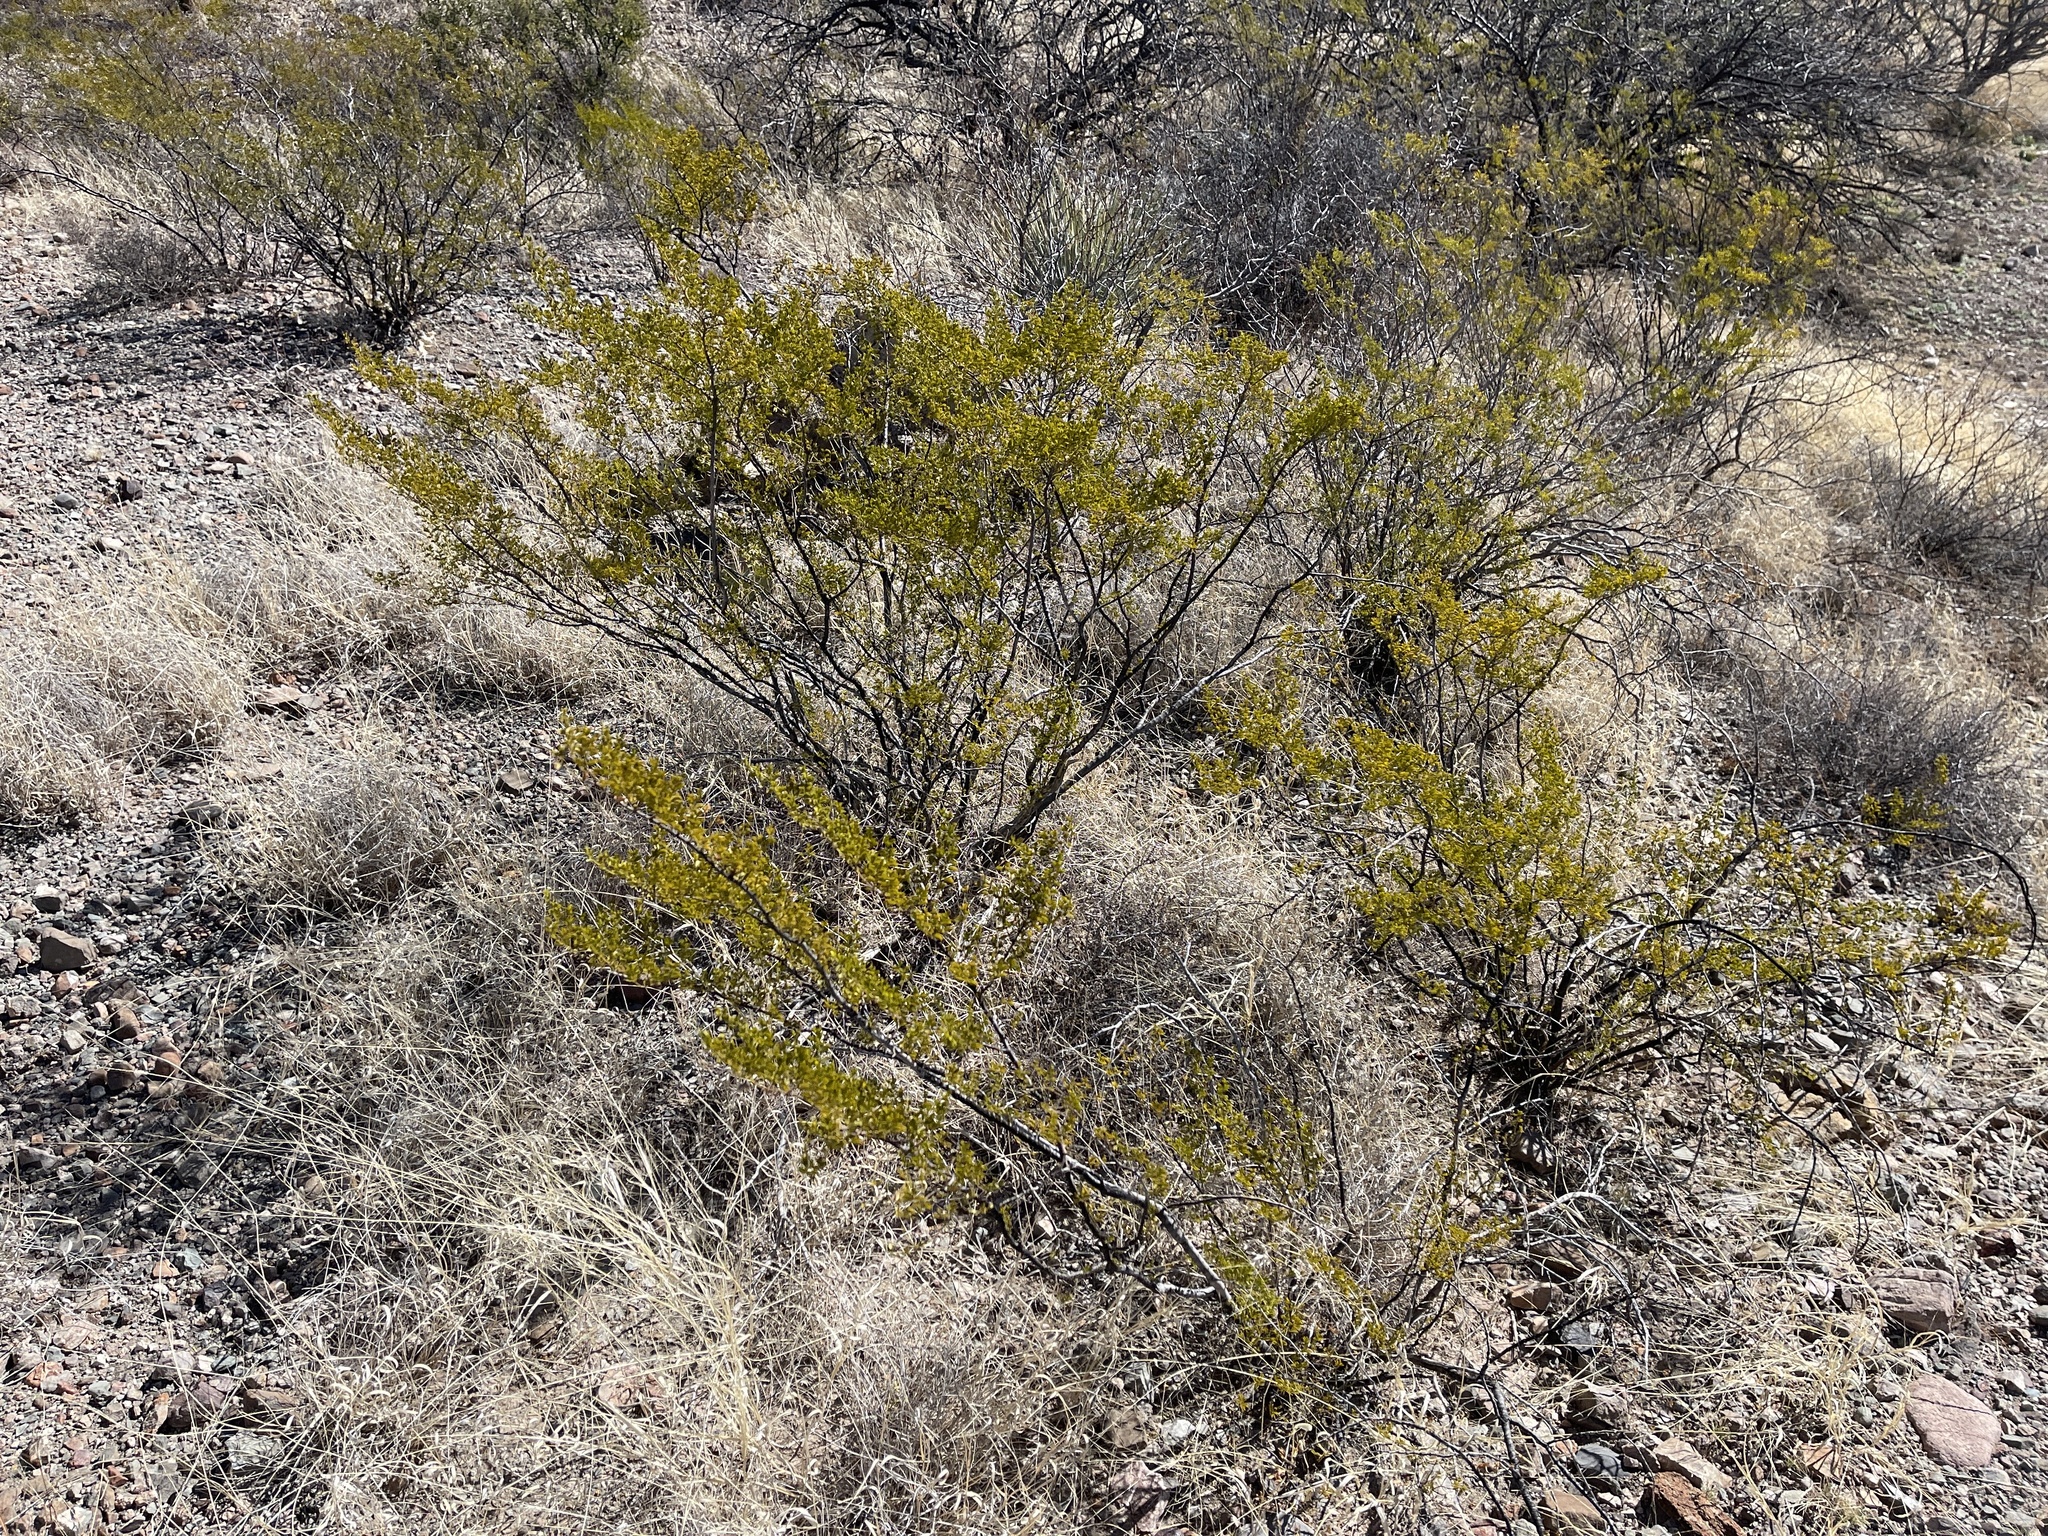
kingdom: Plantae
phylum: Tracheophyta
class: Magnoliopsida
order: Zygophyllales
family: Zygophyllaceae
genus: Larrea
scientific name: Larrea tridentata
